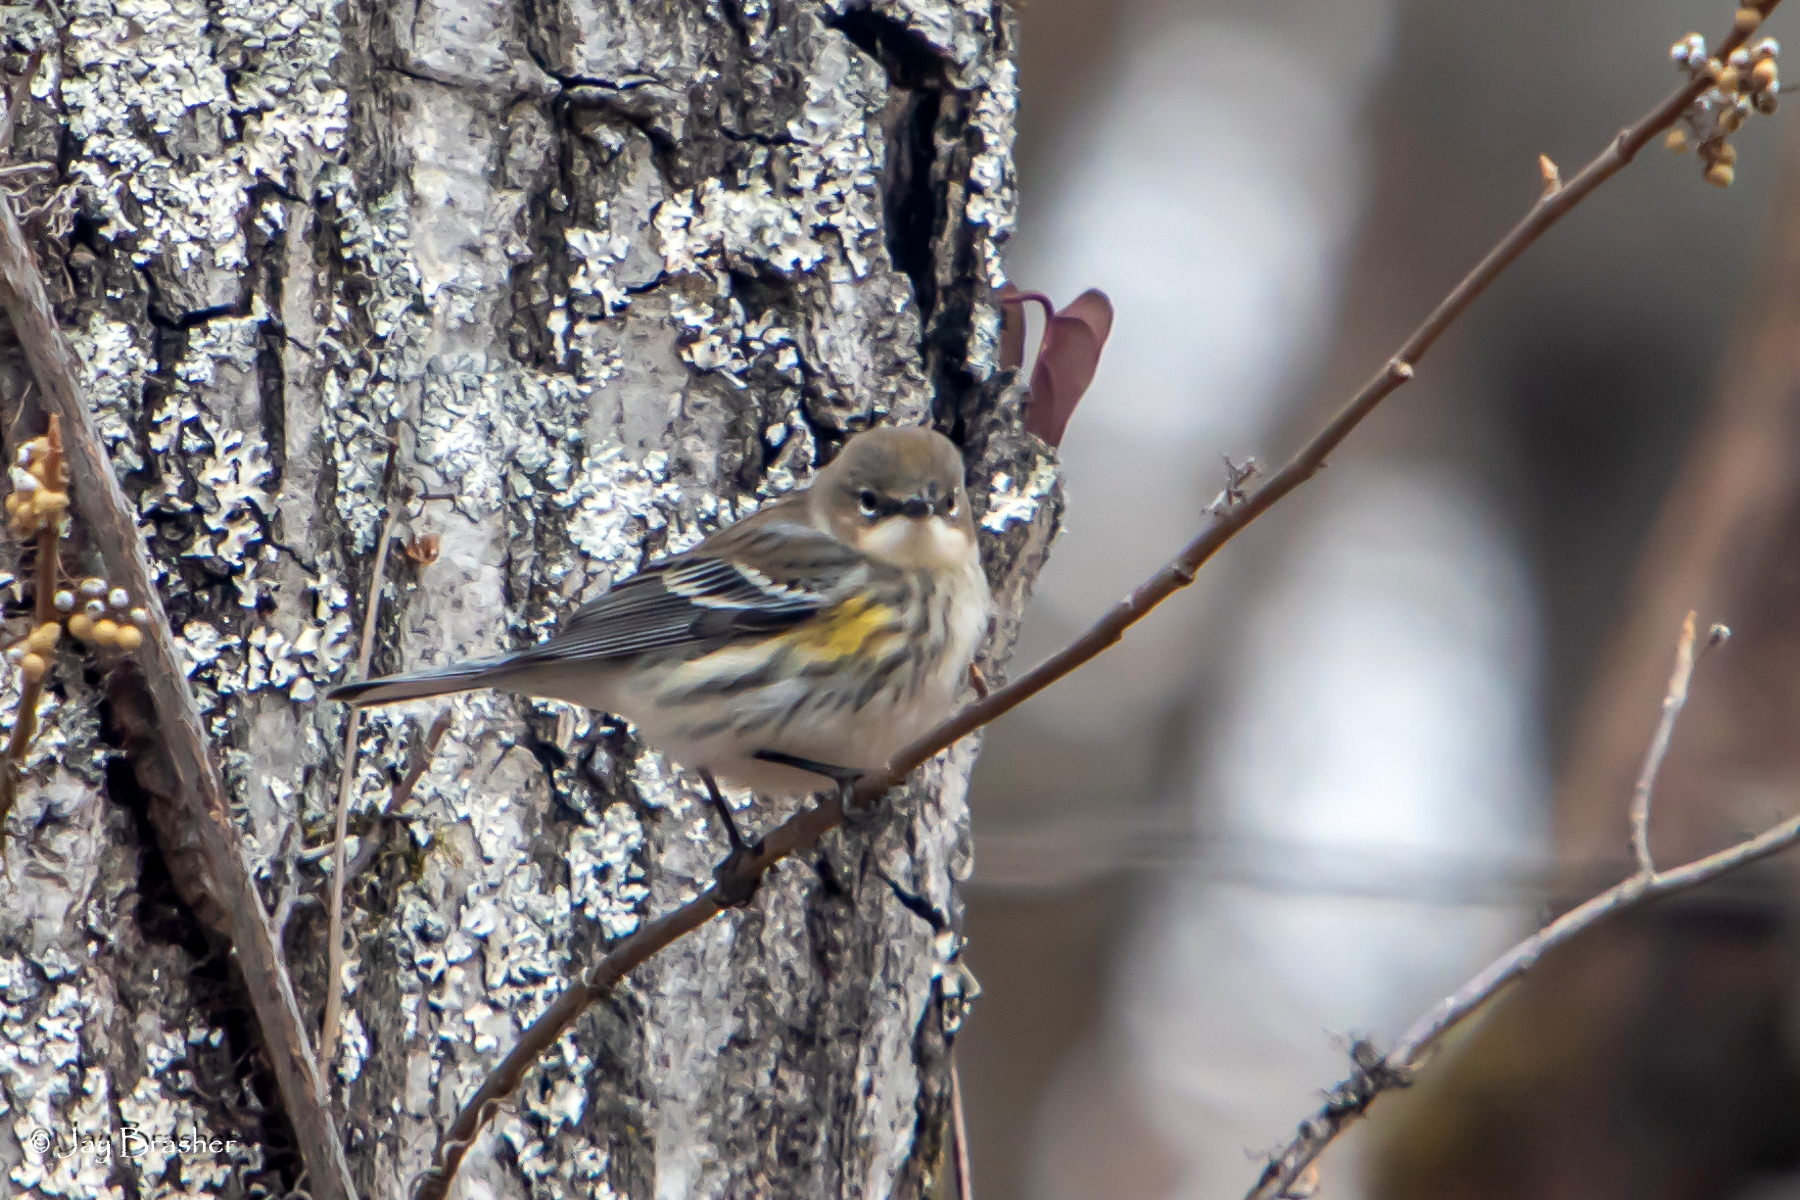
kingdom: Animalia
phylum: Chordata
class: Aves
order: Passeriformes
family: Parulidae
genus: Setophaga
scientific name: Setophaga coronata
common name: Myrtle warbler
